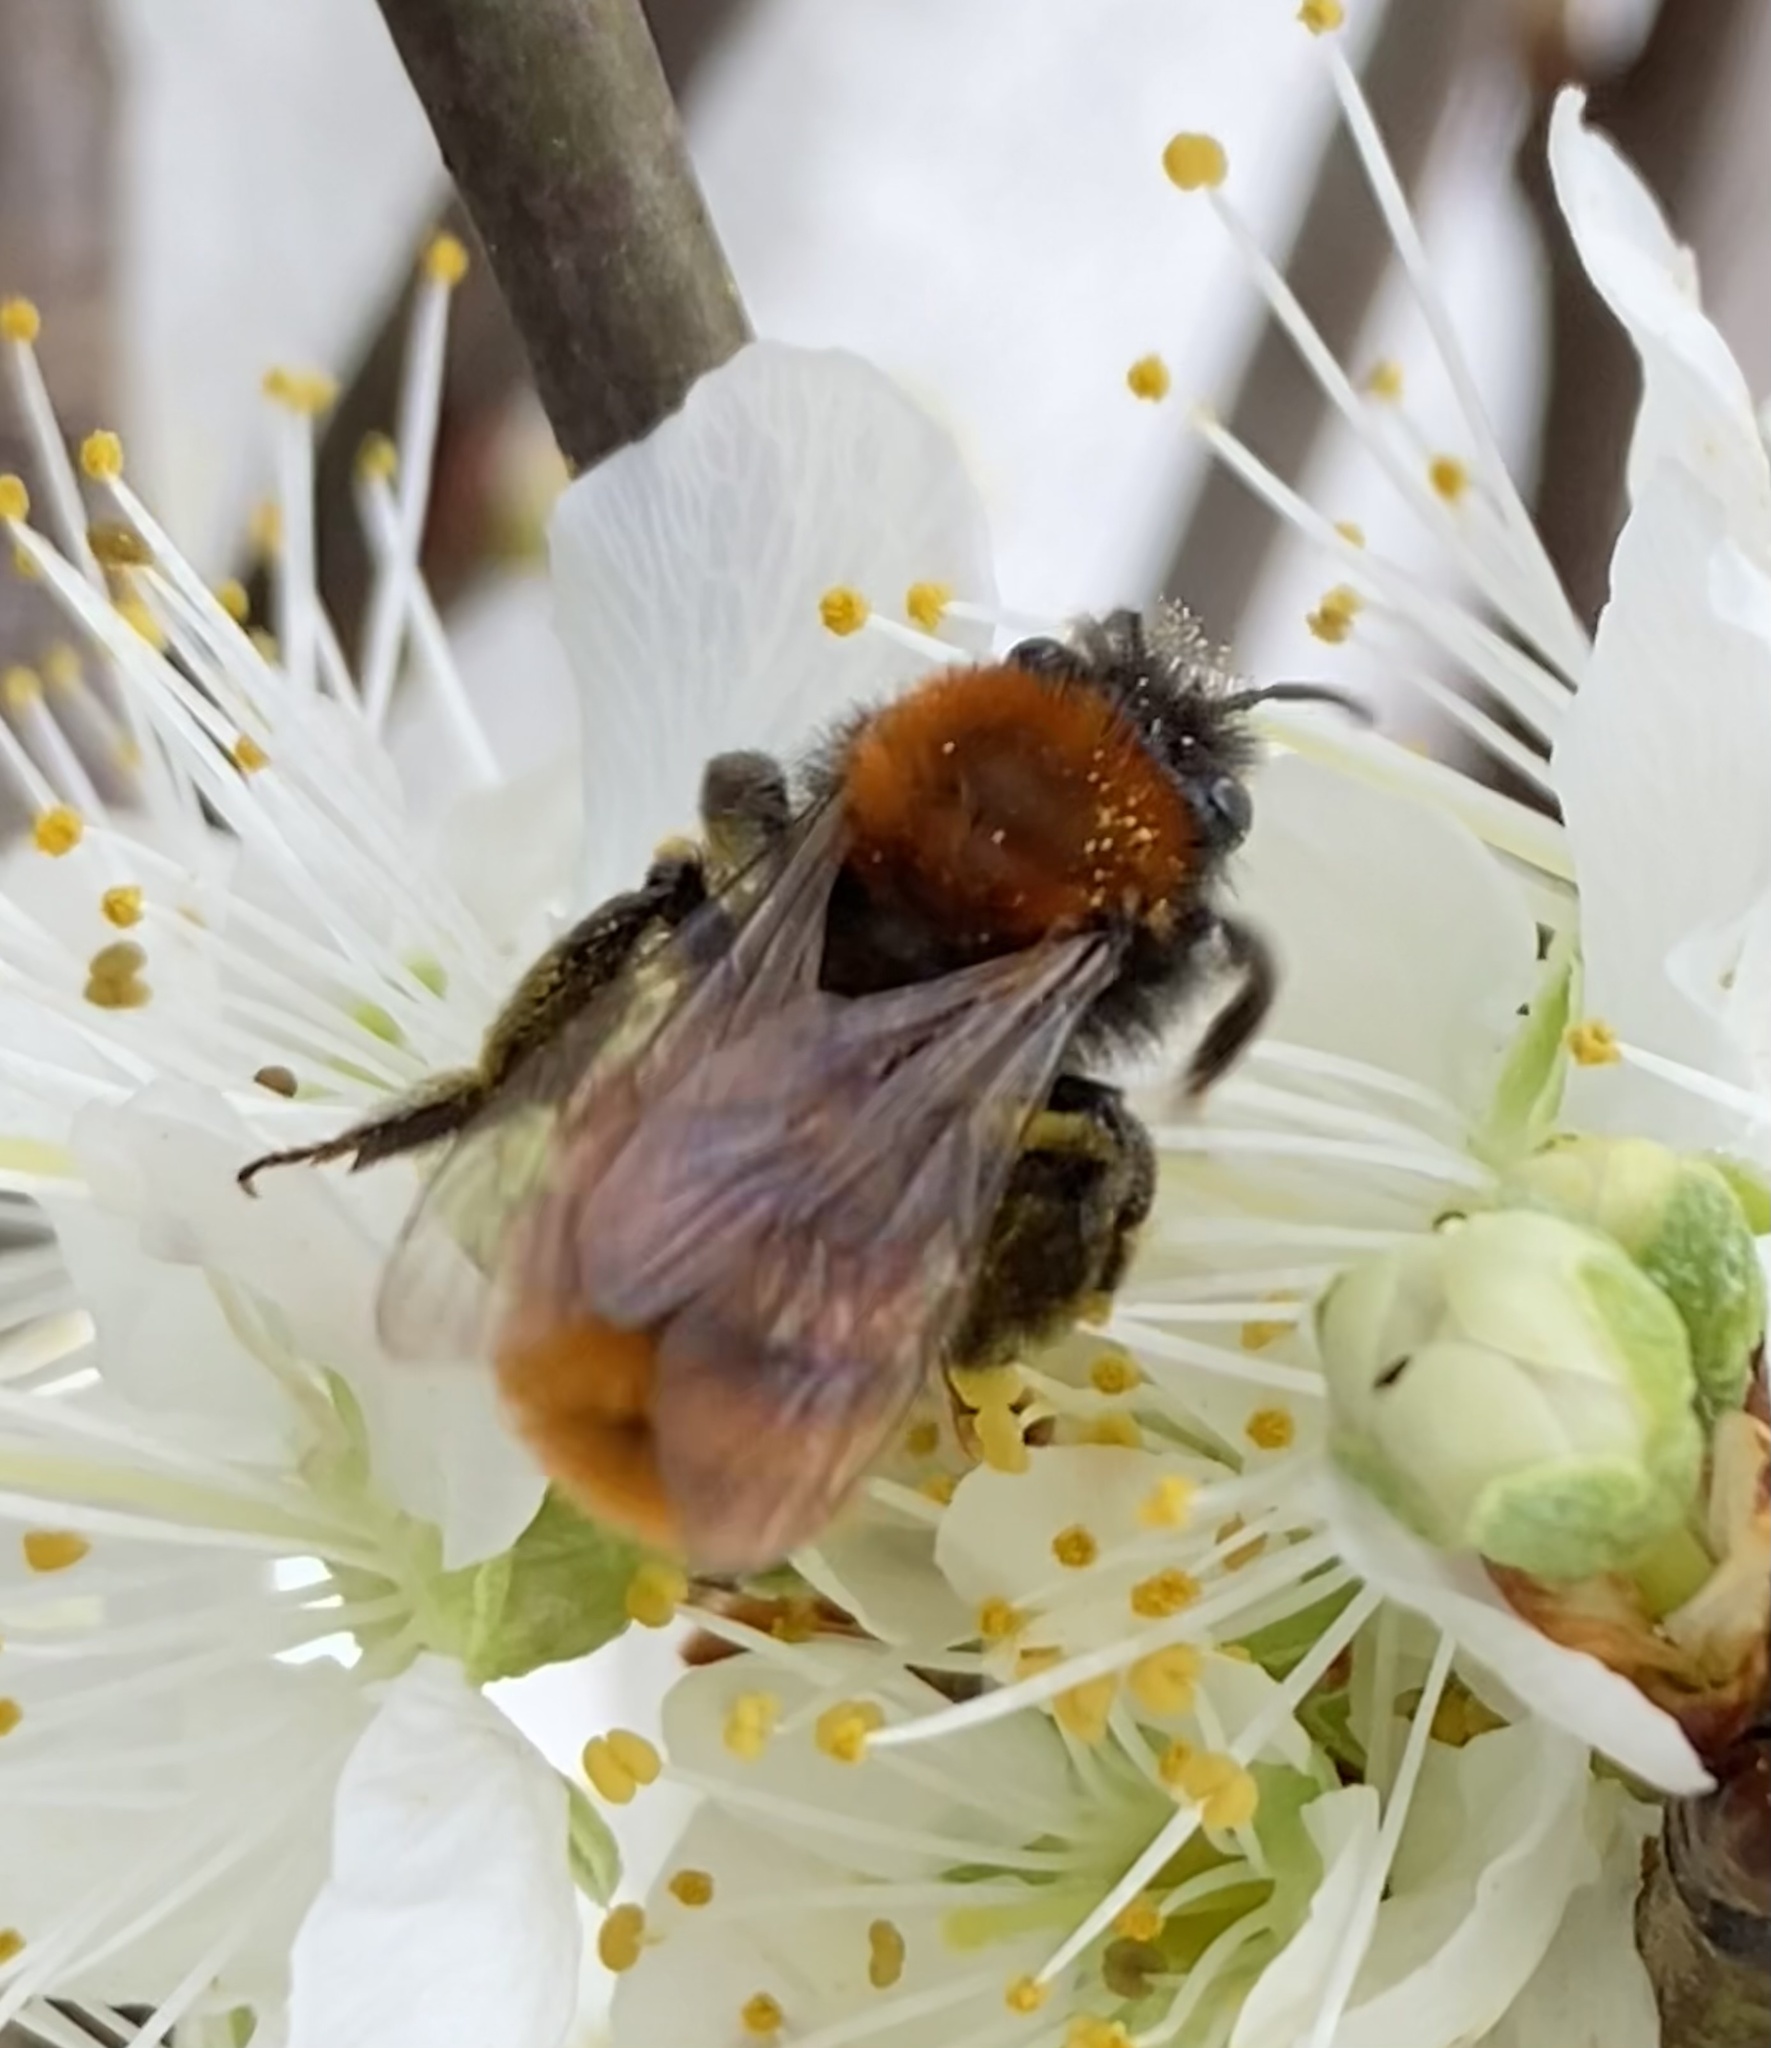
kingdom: Animalia
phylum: Arthropoda
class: Insecta
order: Hymenoptera
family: Andrenidae
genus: Andrena
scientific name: Andrena fulva
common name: Tawny mining bee
